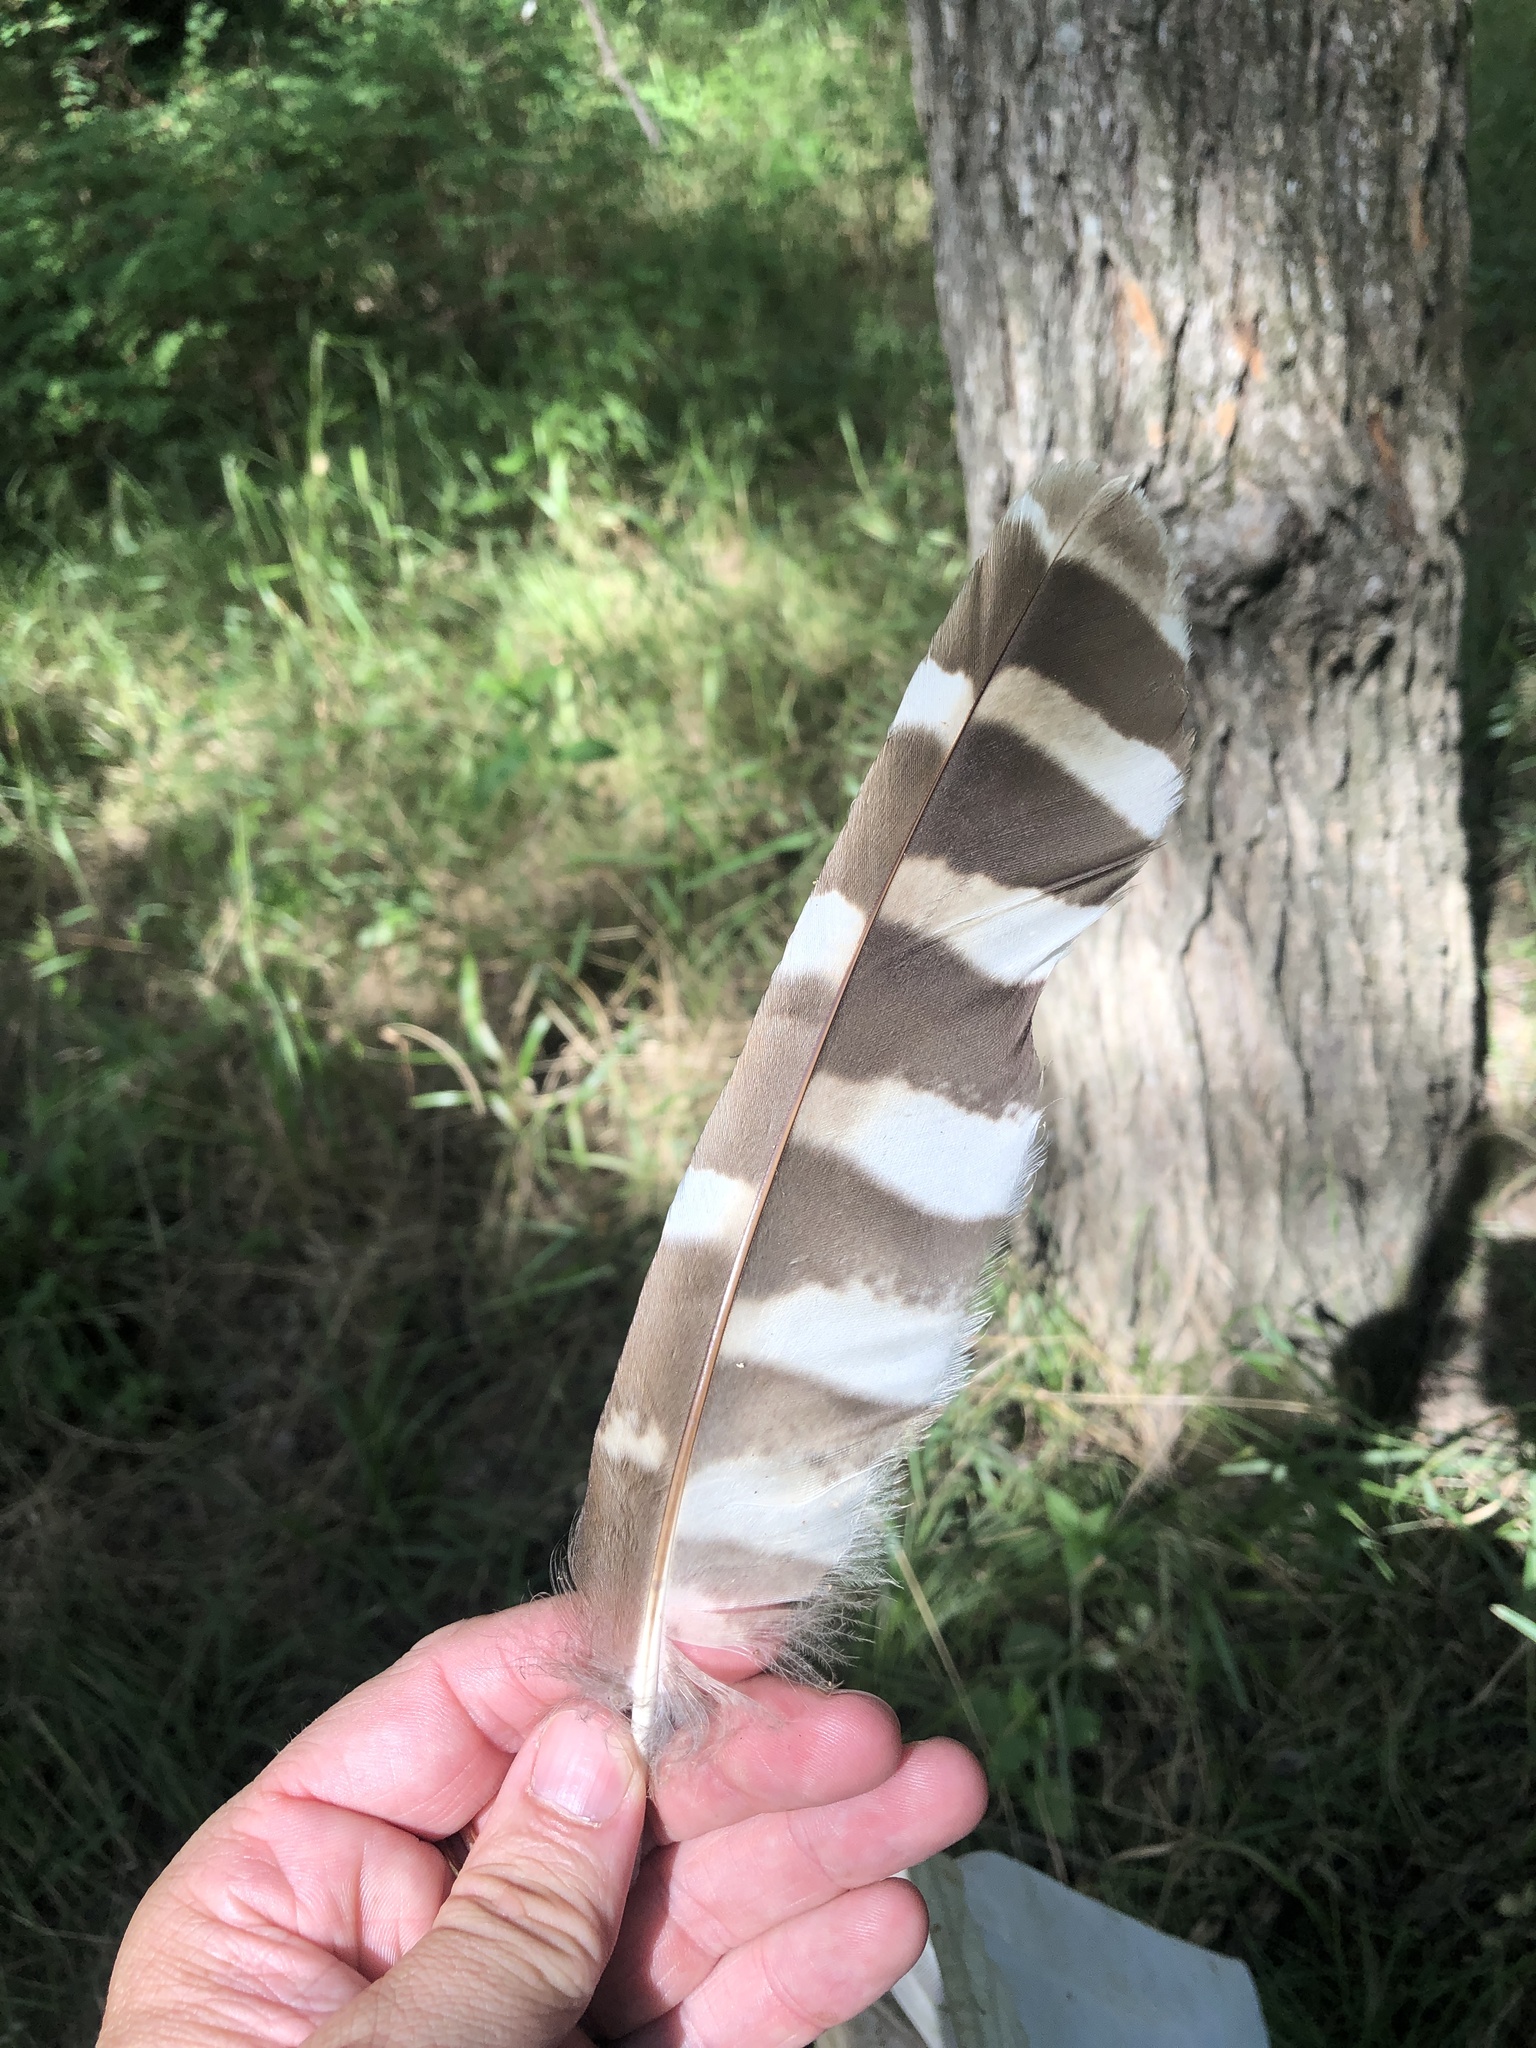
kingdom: Animalia
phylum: Chordata
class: Aves
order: Strigiformes
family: Strigidae
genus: Strix
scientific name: Strix varia
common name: Barred owl
